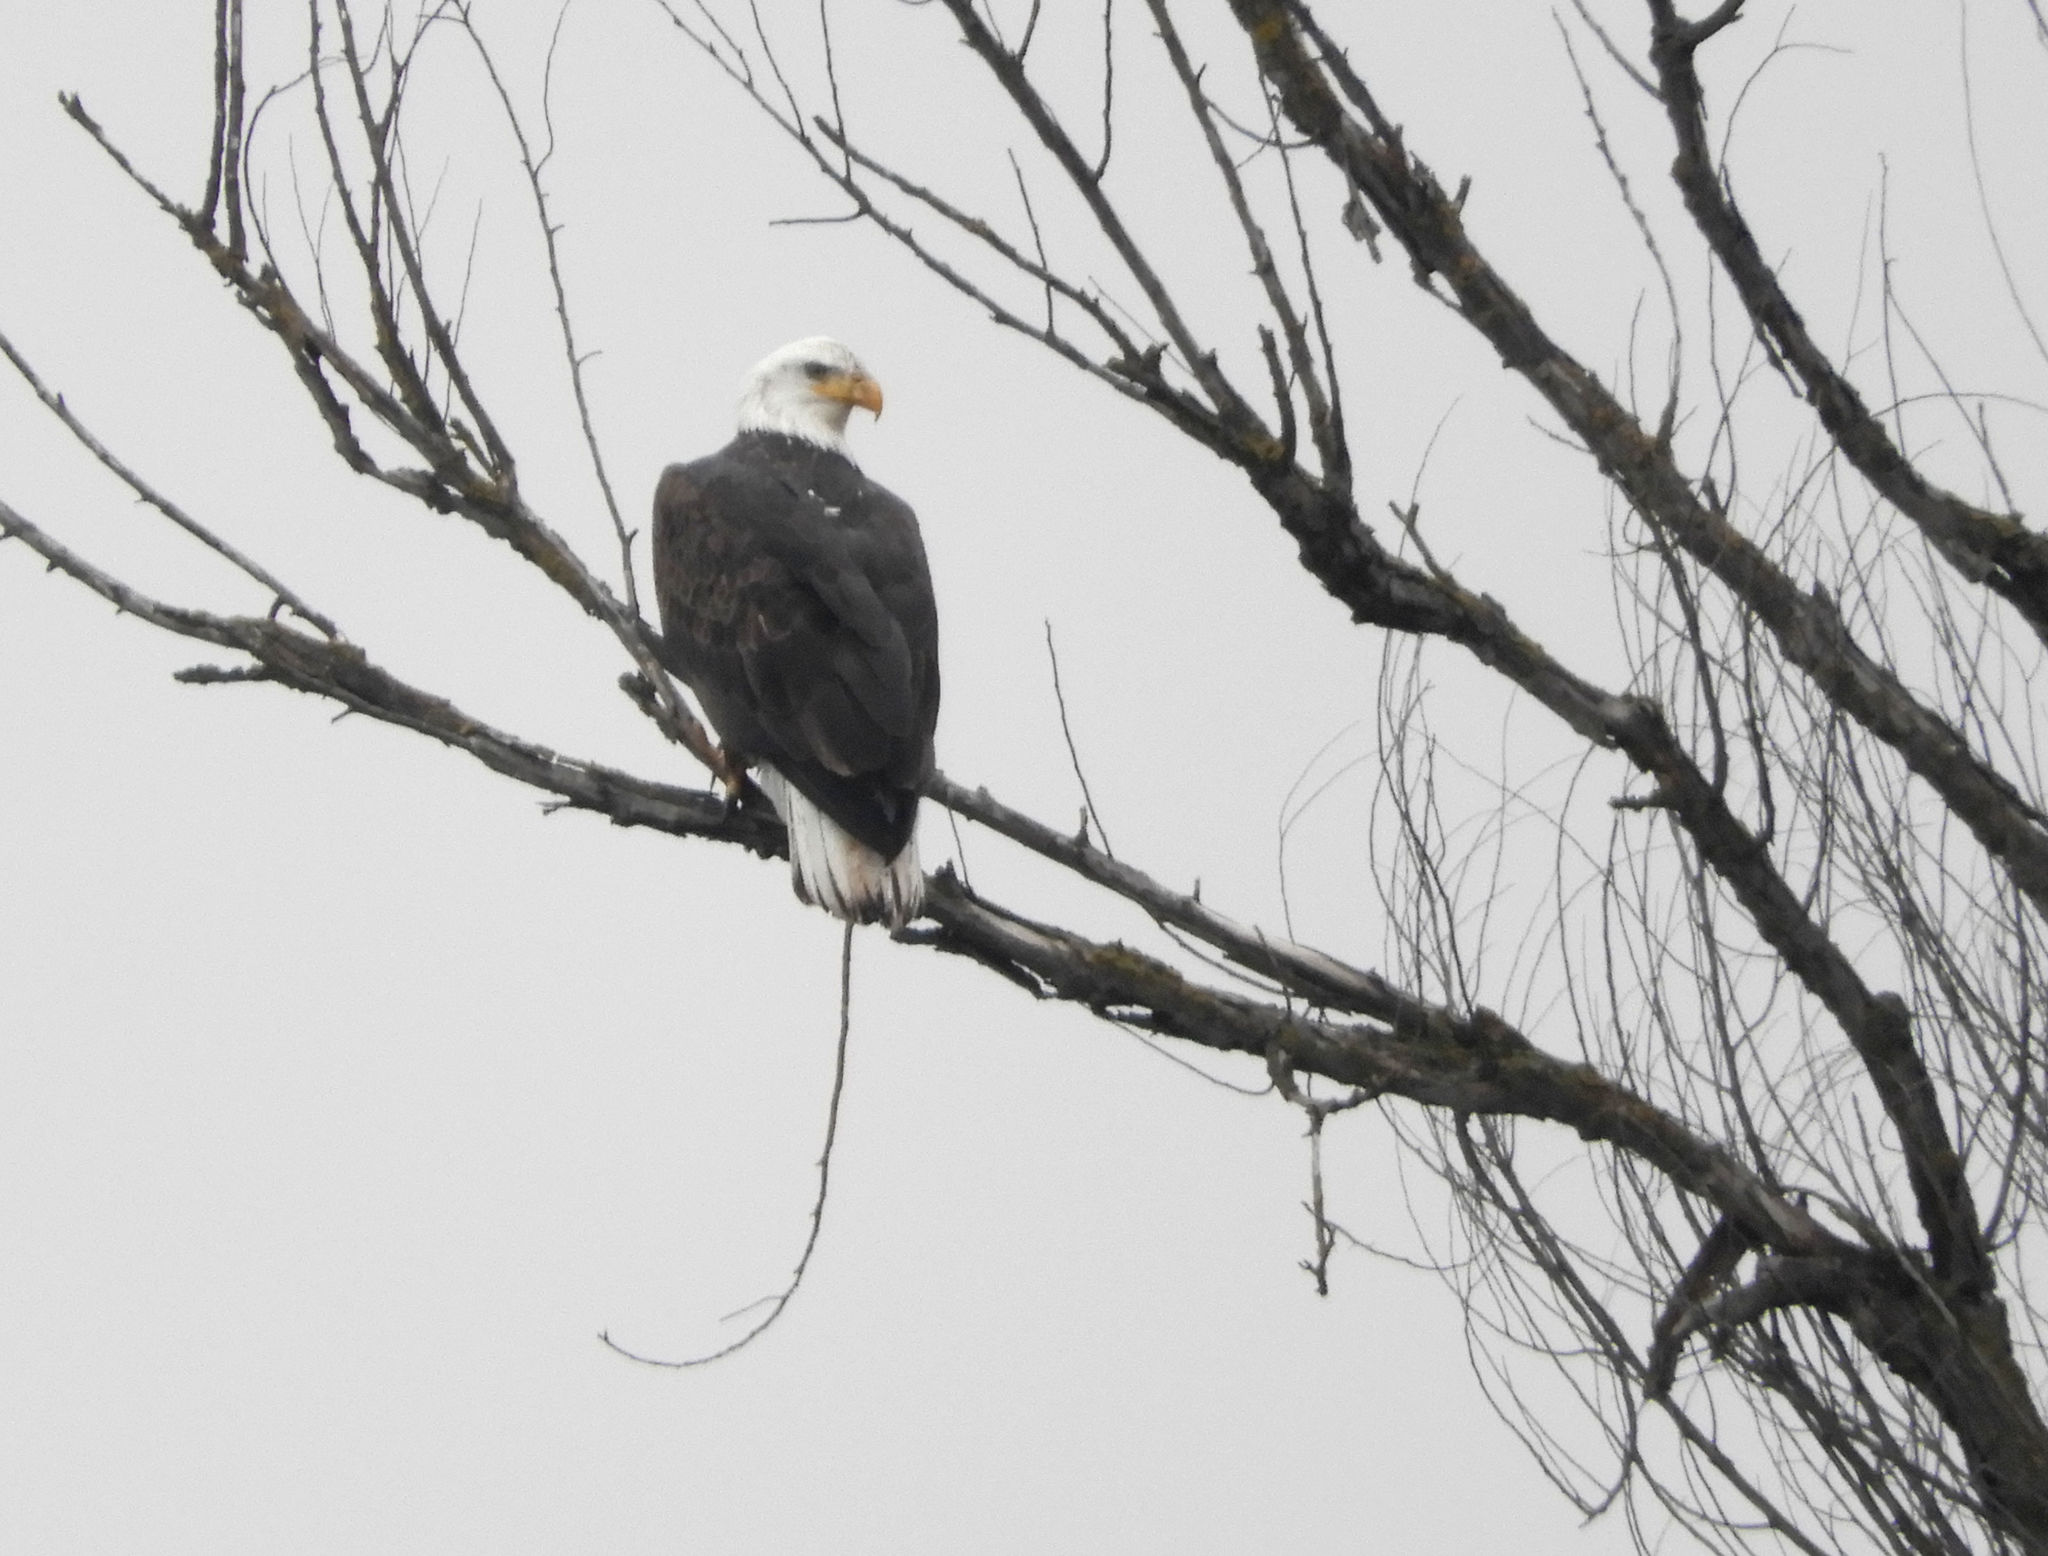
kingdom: Animalia
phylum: Chordata
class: Aves
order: Accipitriformes
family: Accipitridae
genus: Haliaeetus
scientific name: Haliaeetus leucocephalus
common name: Bald eagle
